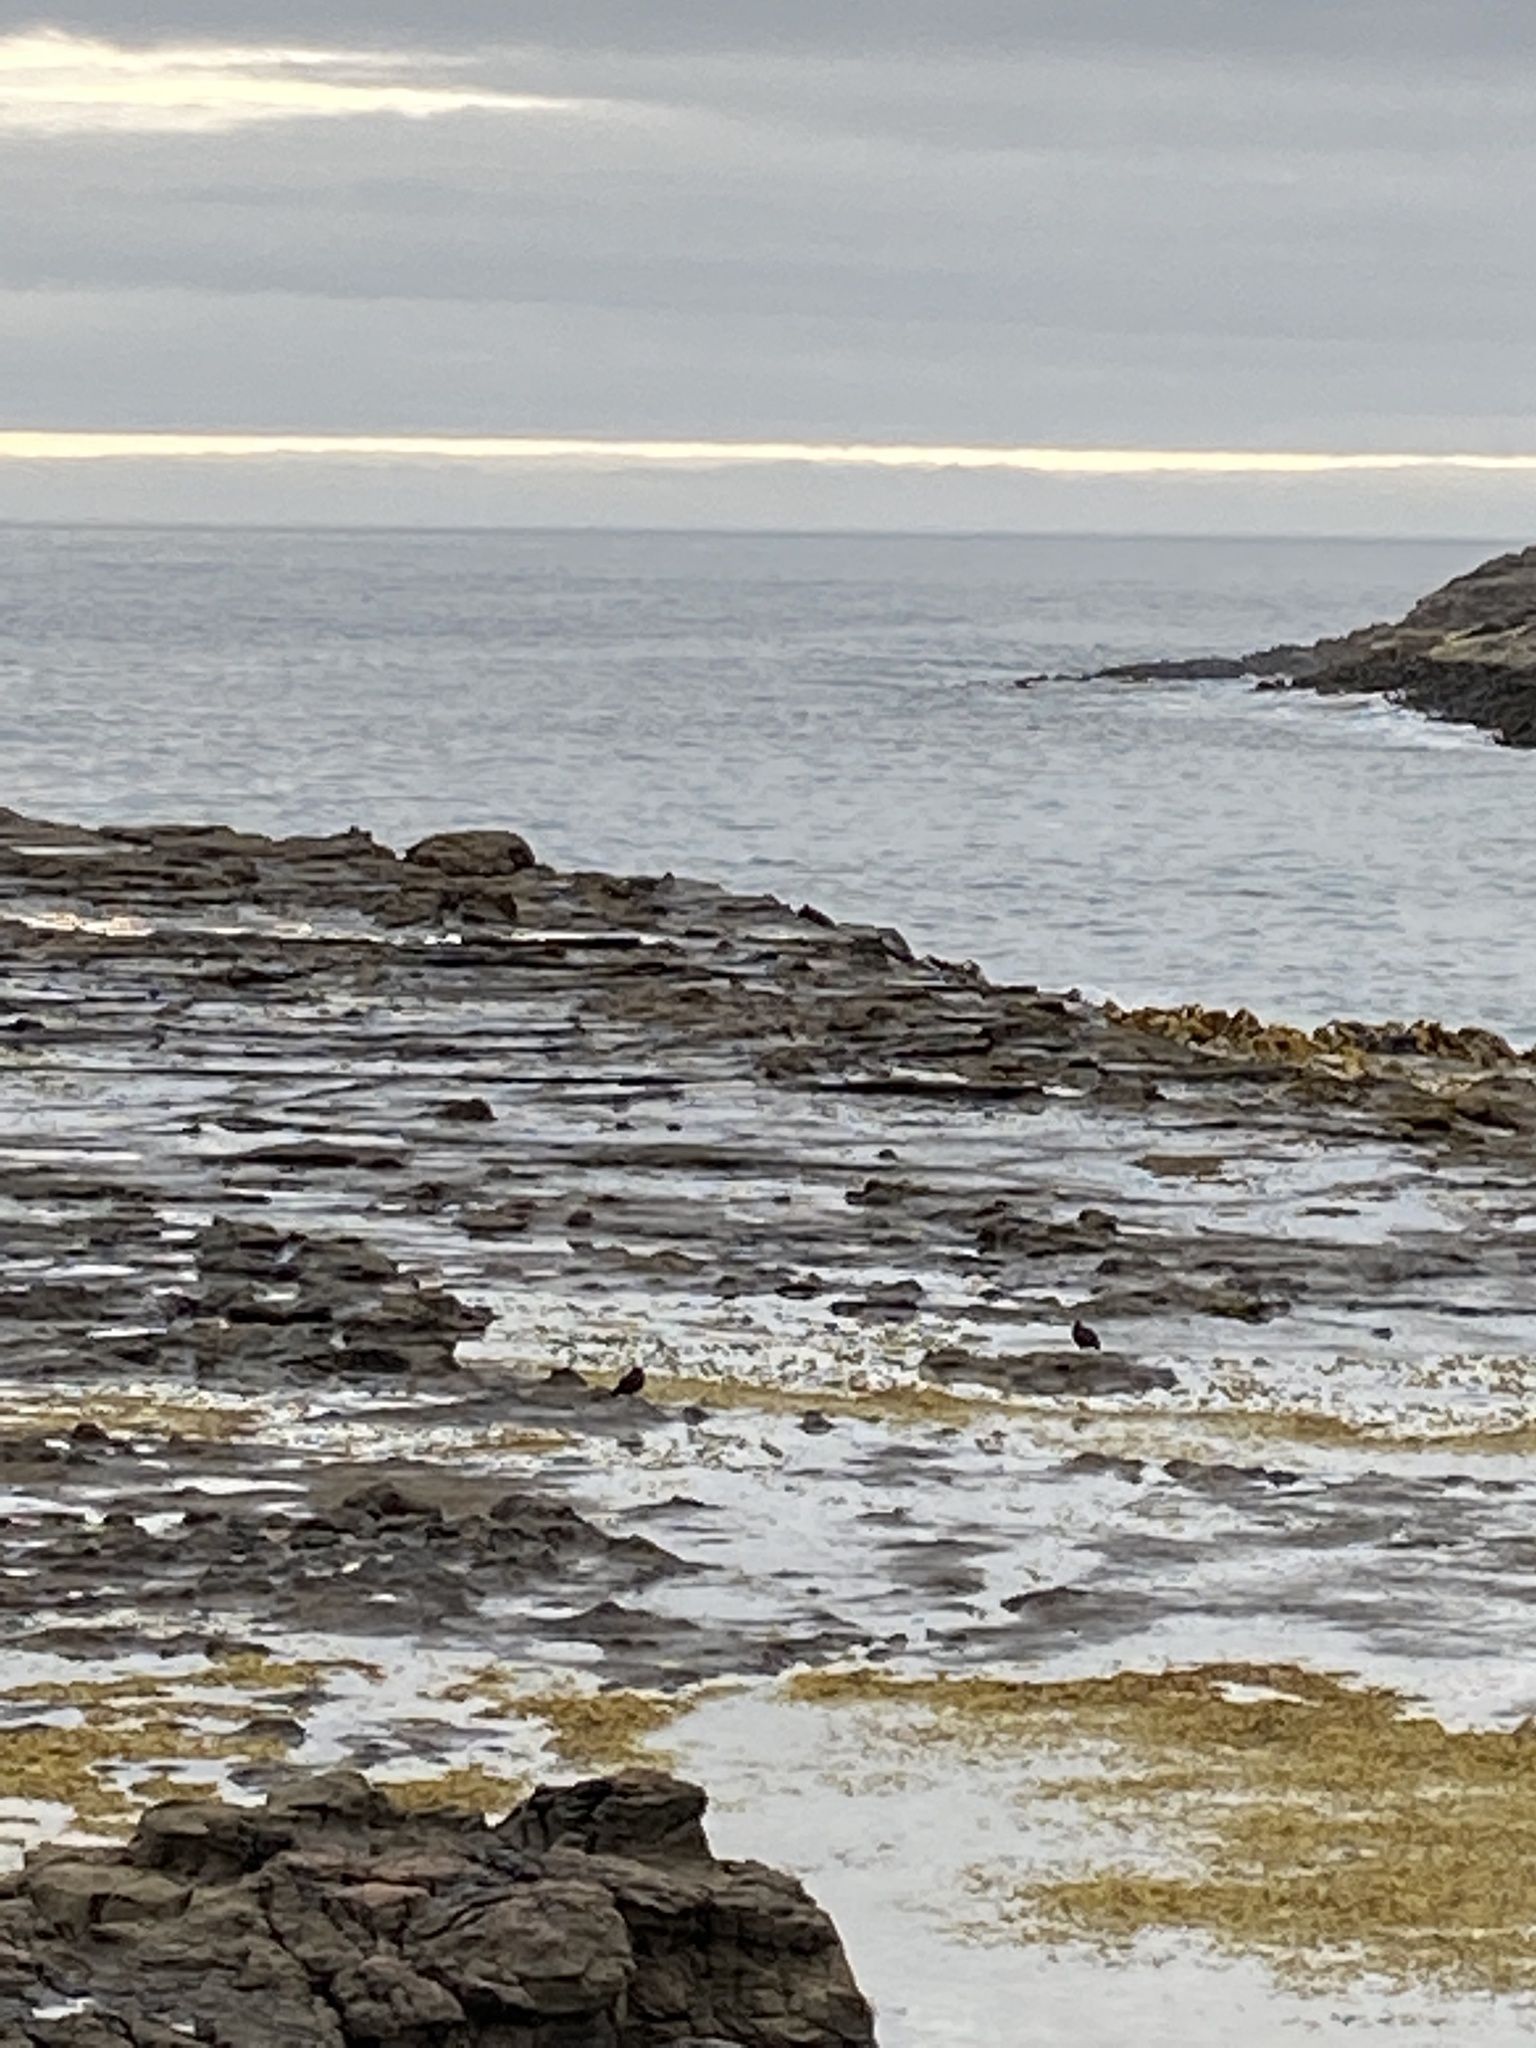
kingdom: Animalia
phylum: Chordata
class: Aves
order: Charadriiformes
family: Haematopodidae
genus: Haematopus
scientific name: Haematopus unicolor
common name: Variable oystercatcher
